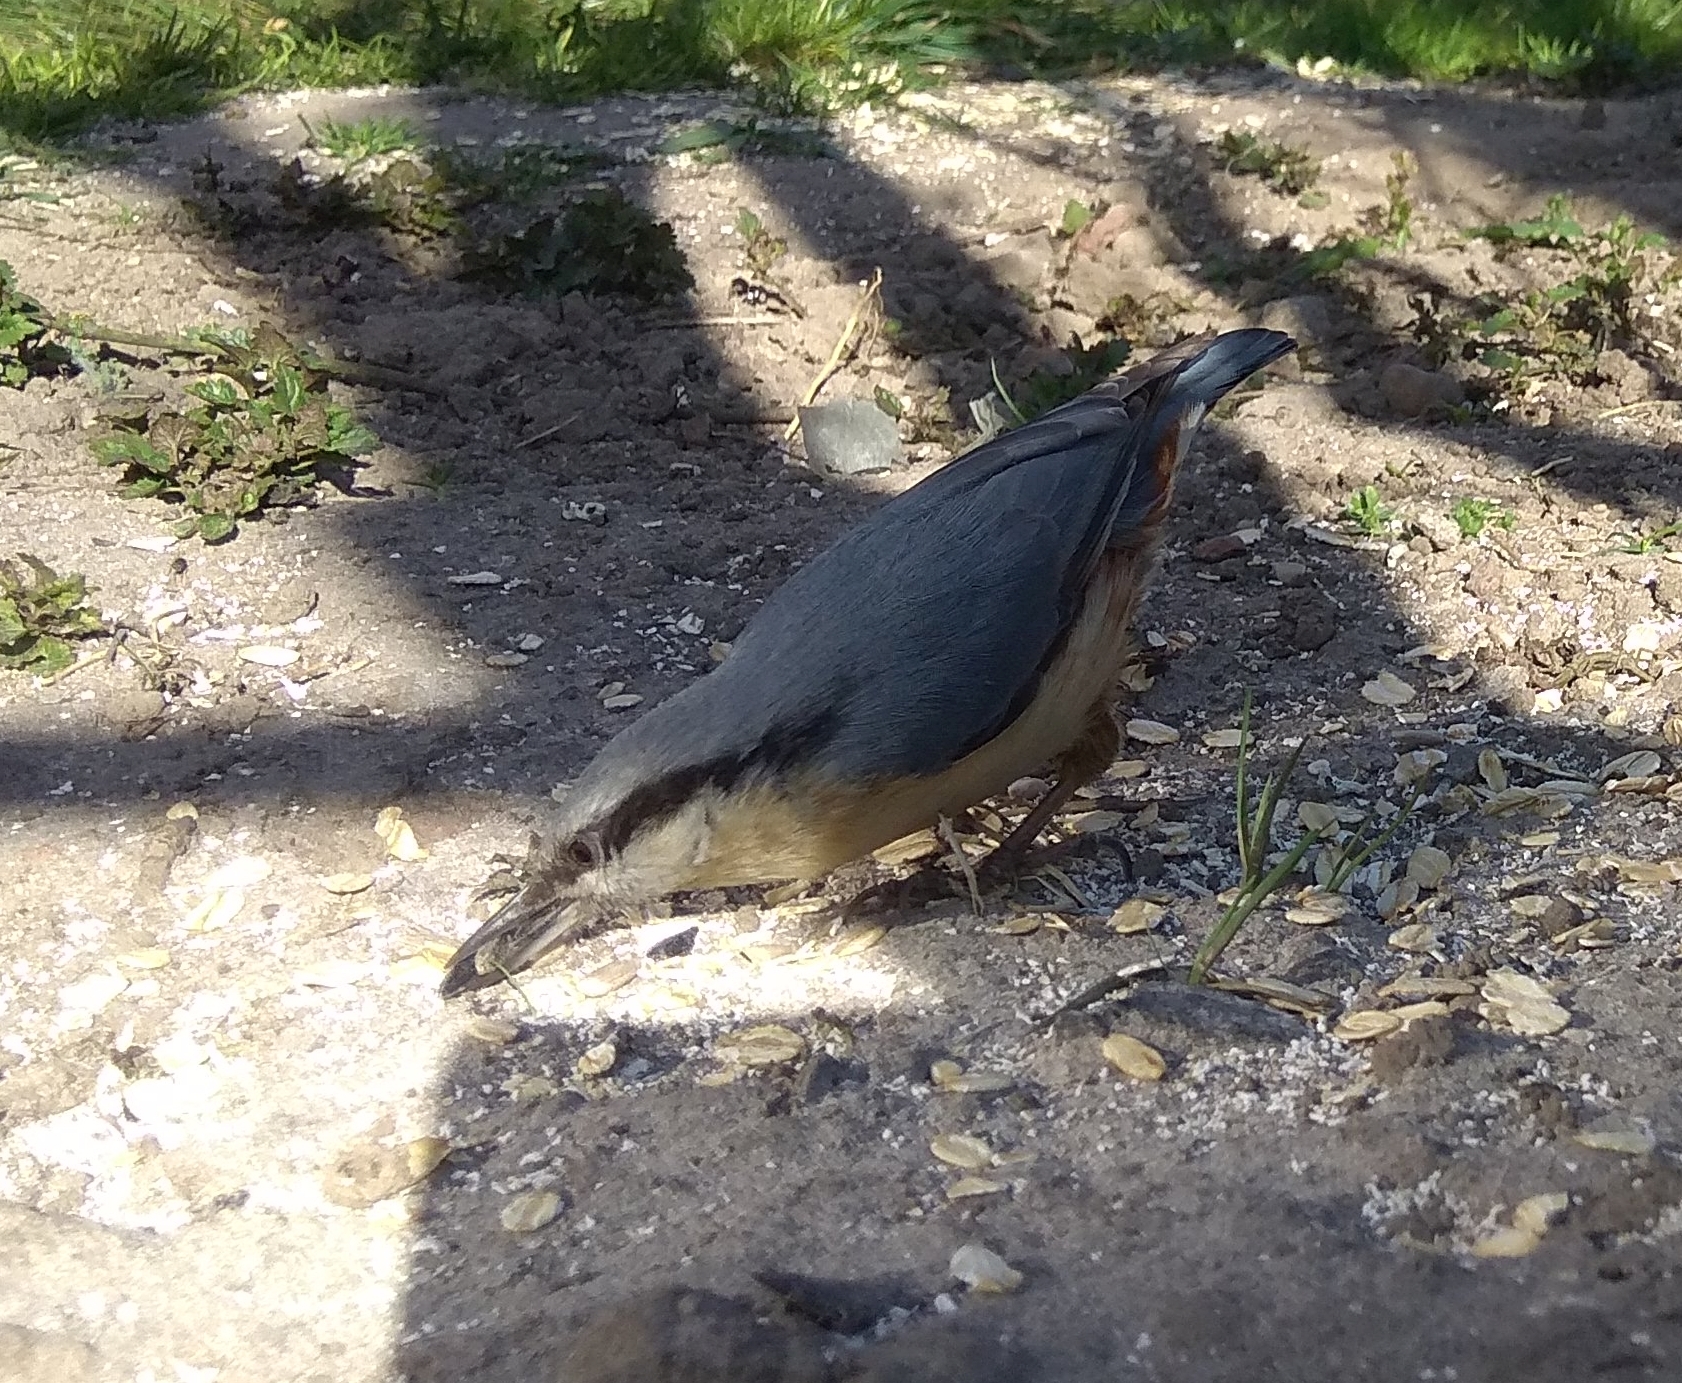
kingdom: Animalia
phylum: Chordata
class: Aves
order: Passeriformes
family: Sittidae
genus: Sitta
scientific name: Sitta europaea
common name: Eurasian nuthatch
